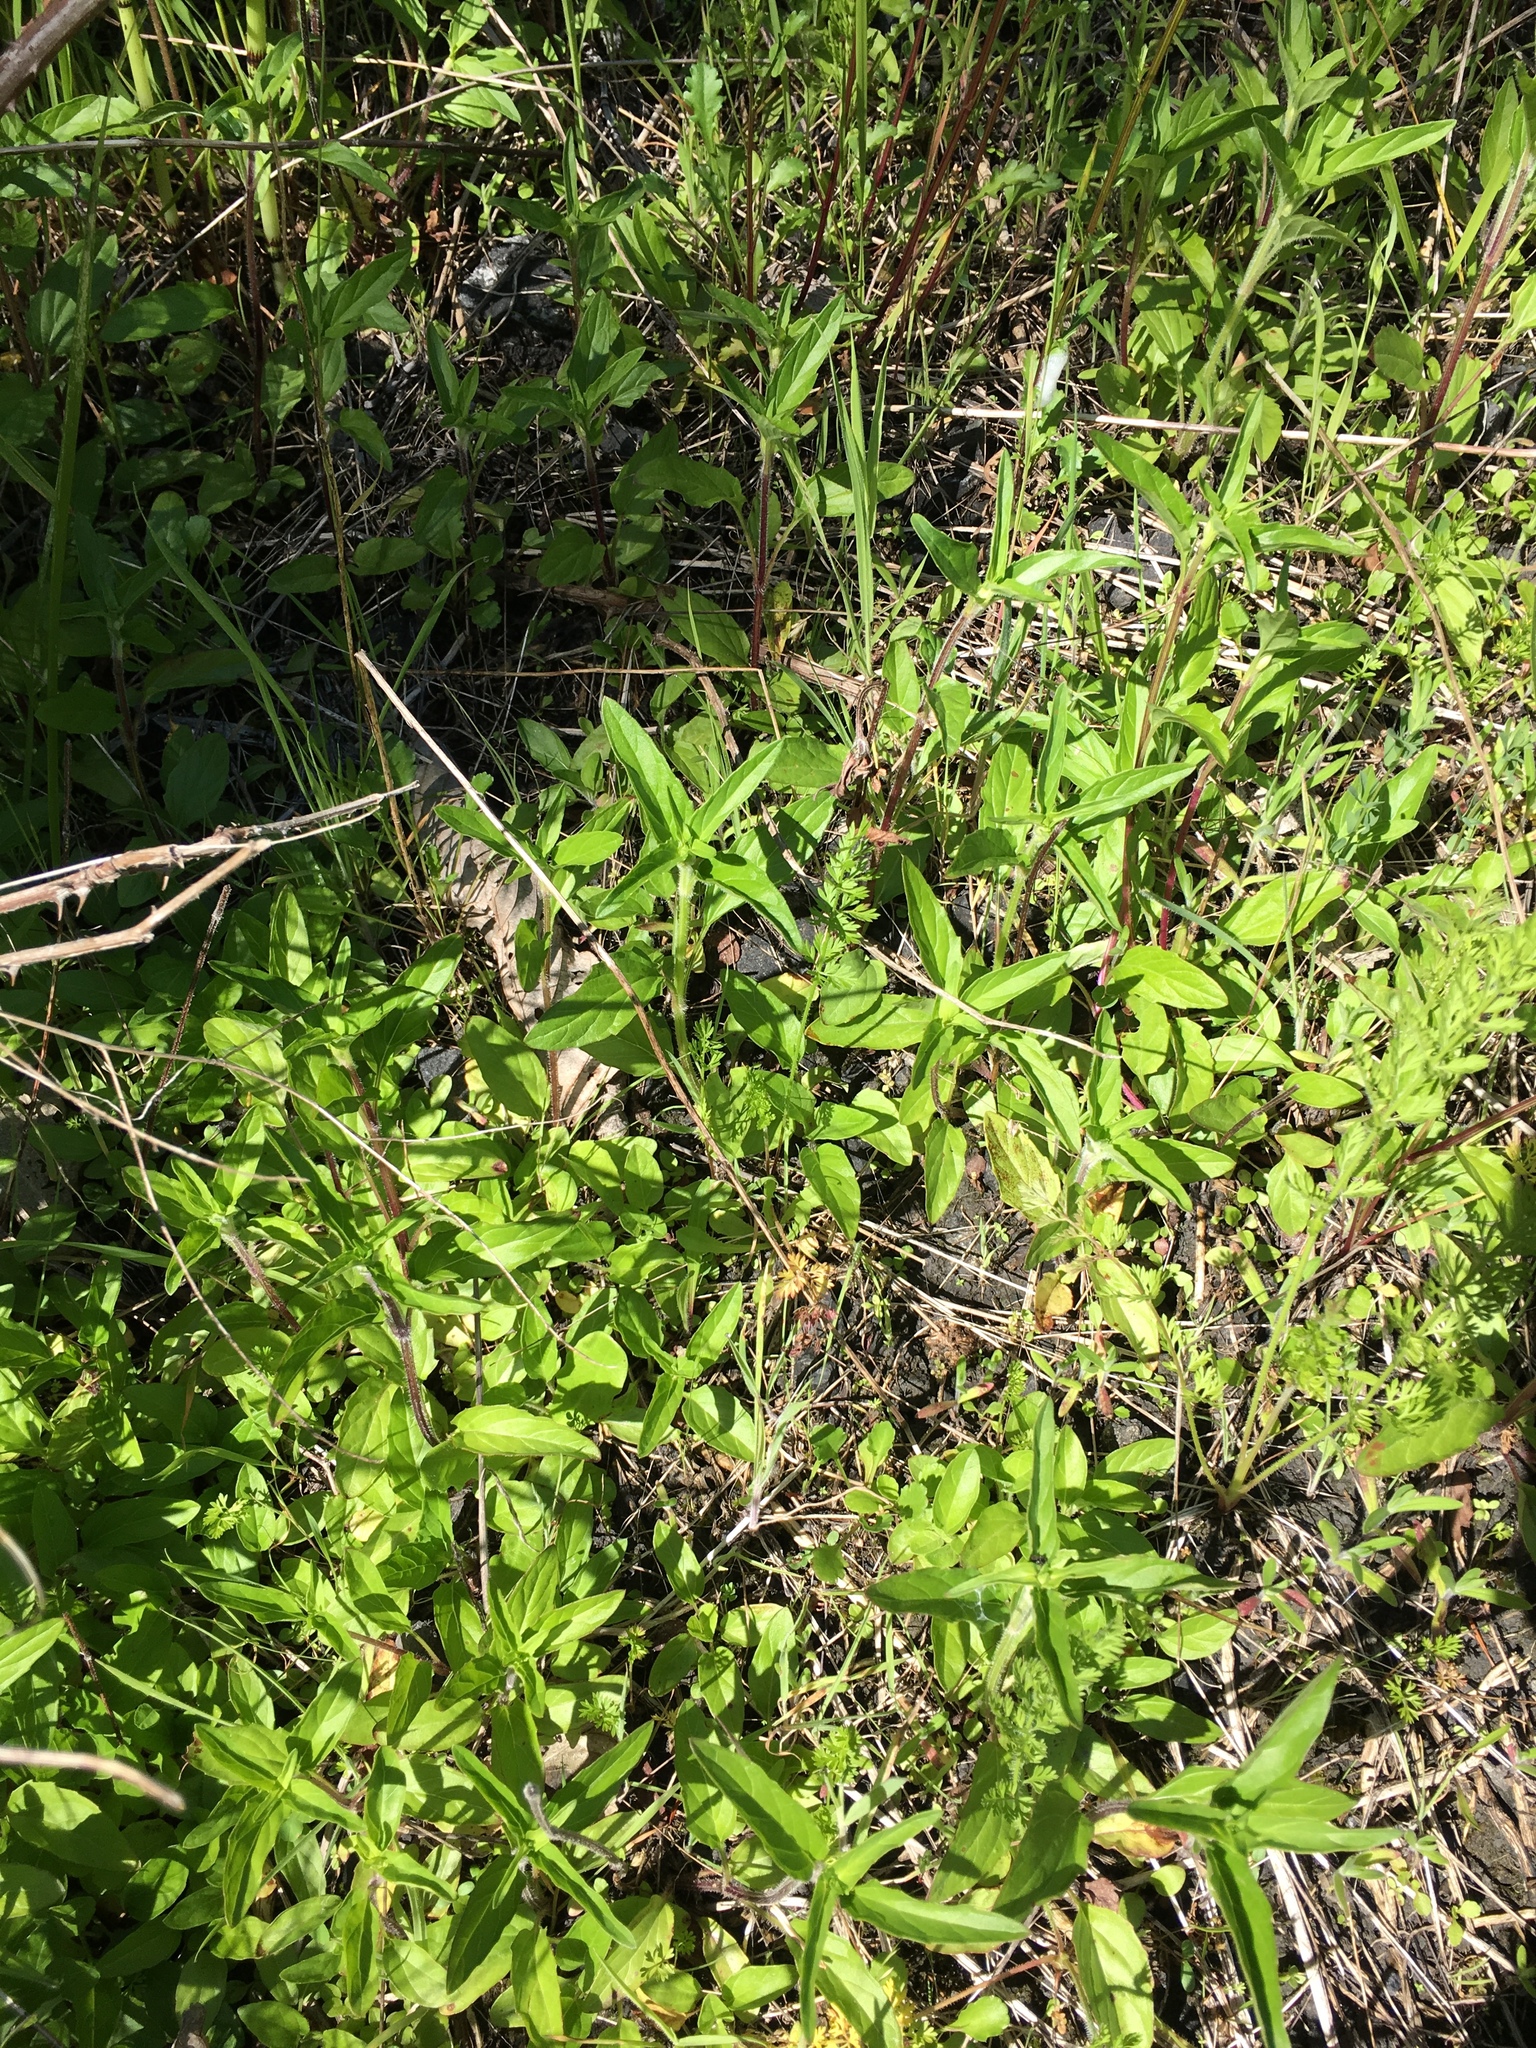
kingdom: Plantae
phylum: Tracheophyta
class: Magnoliopsida
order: Lamiales
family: Lamiaceae
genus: Prunella
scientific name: Prunella vulgaris
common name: Heal-all
